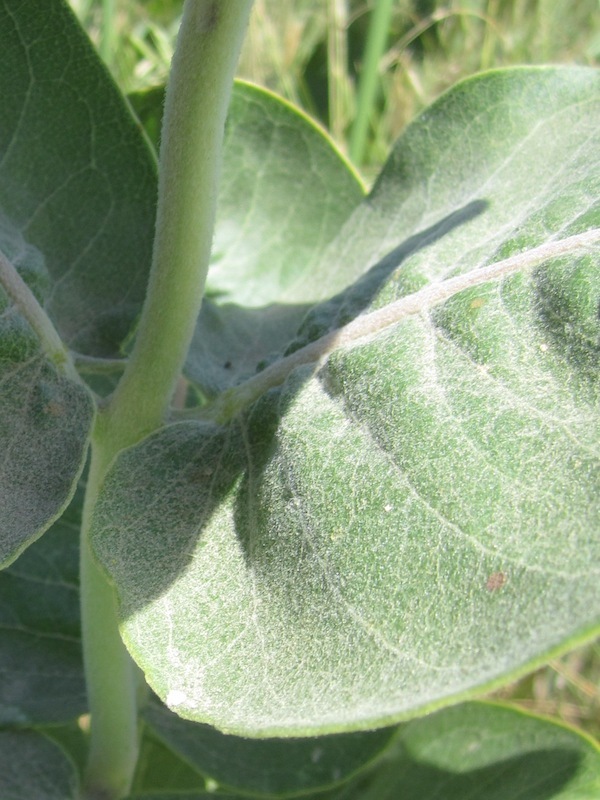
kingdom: Plantae
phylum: Tracheophyta
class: Magnoliopsida
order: Gentianales
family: Apocynaceae
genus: Asclepias
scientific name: Asclepias speciosa
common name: Showy milkweed
